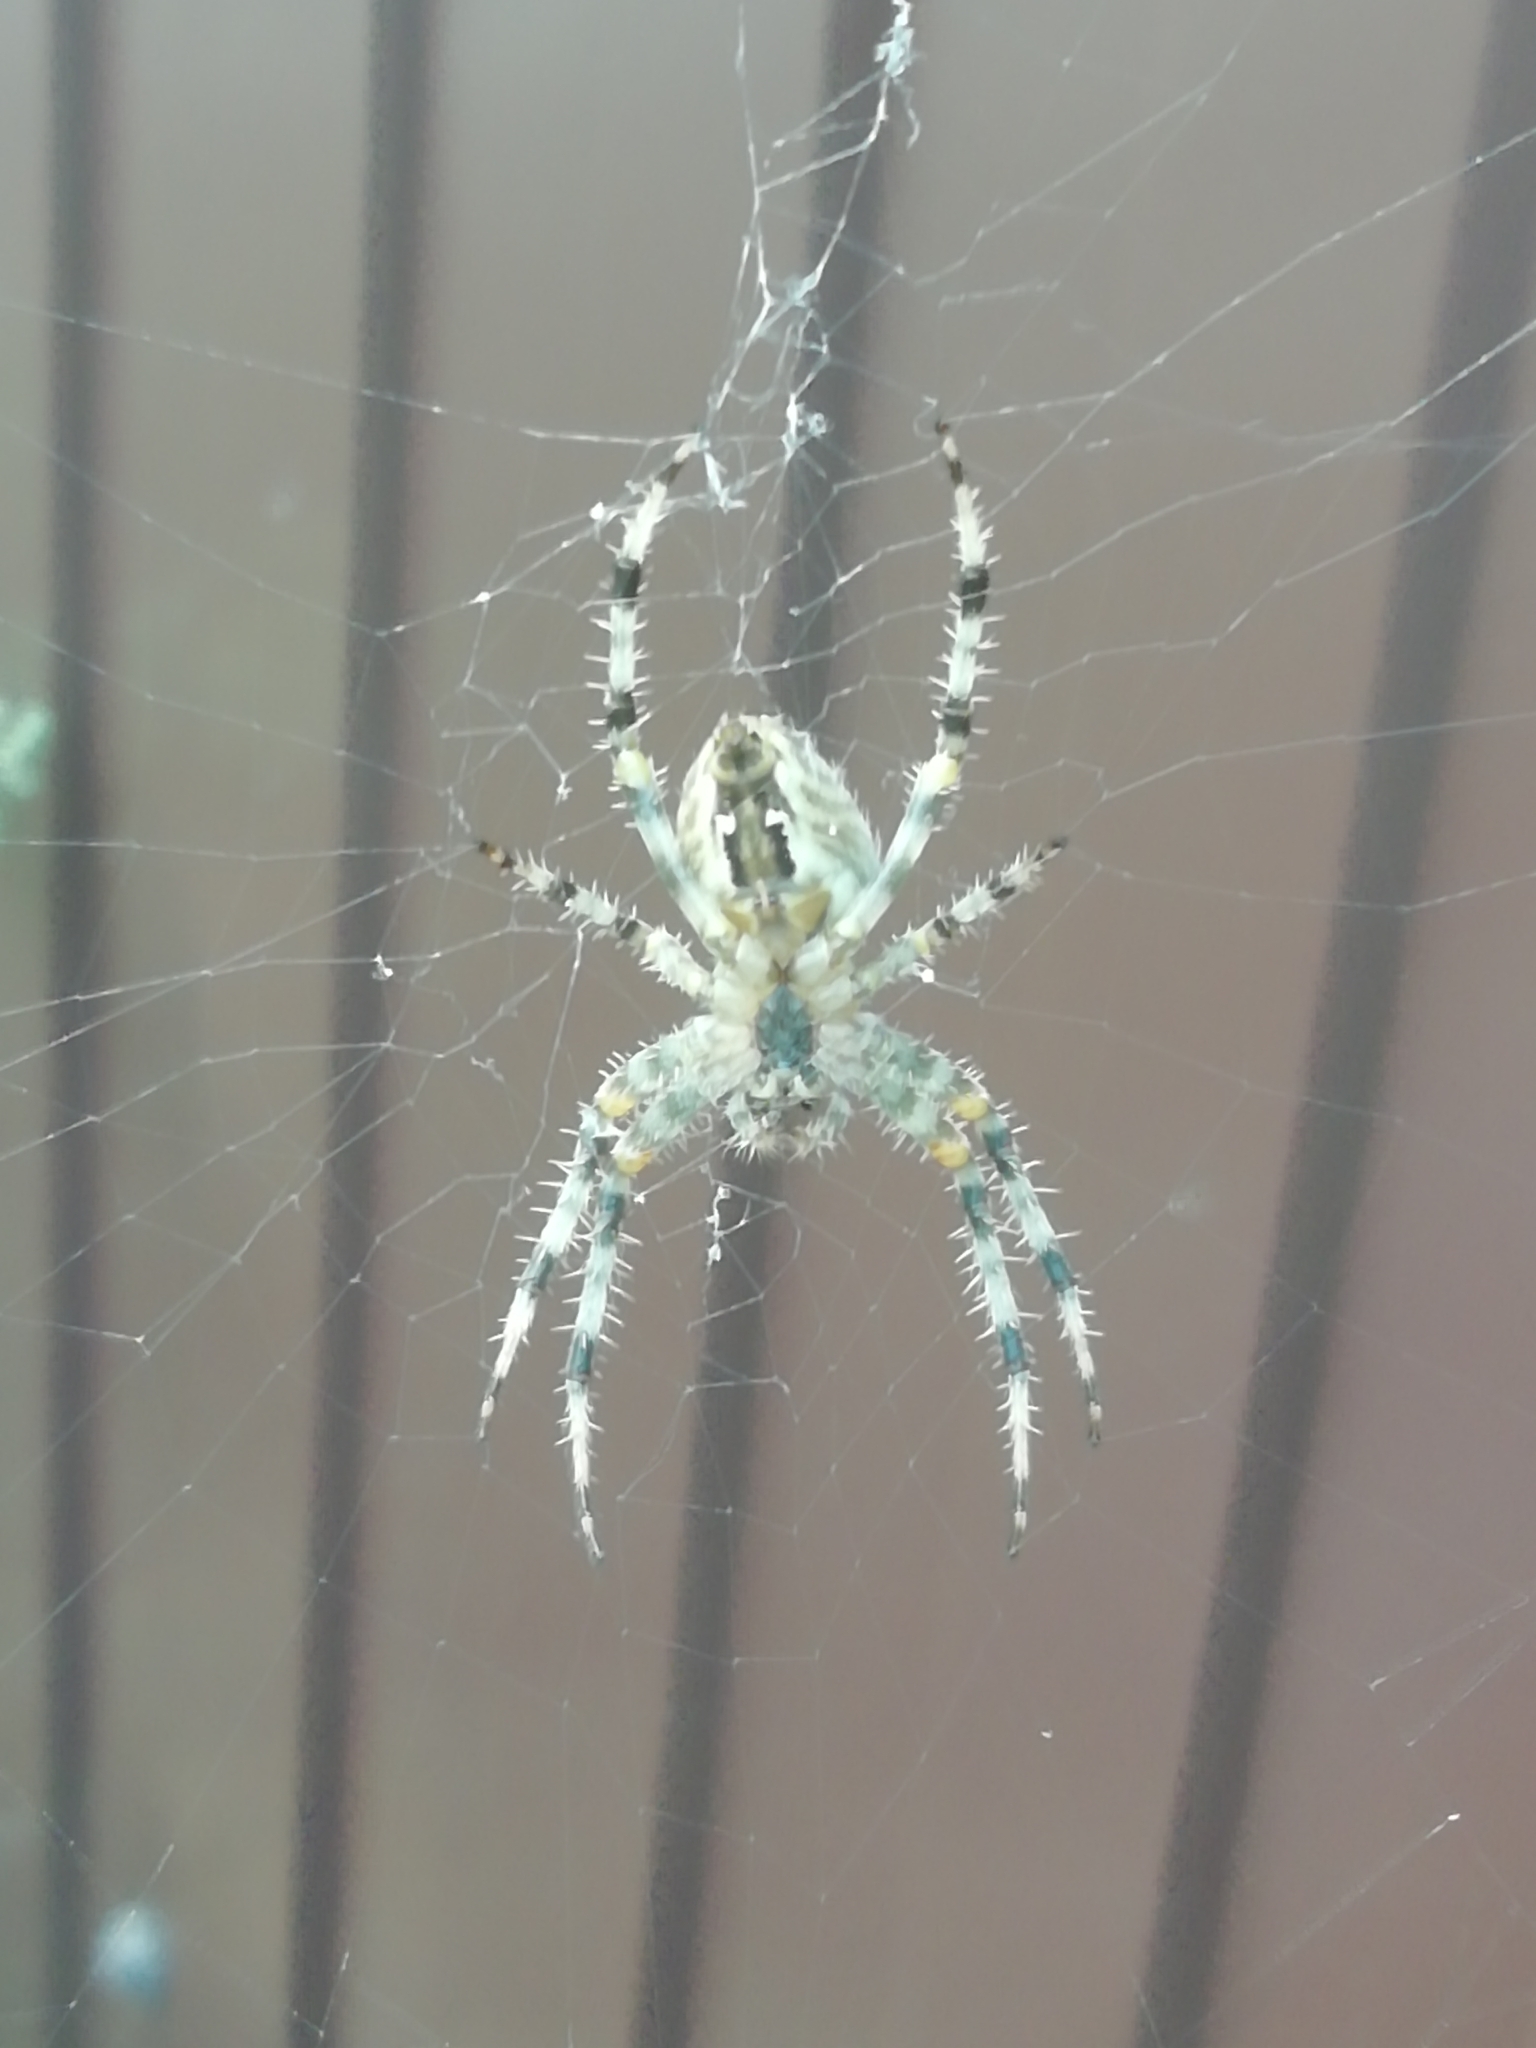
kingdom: Animalia
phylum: Arthropoda
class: Arachnida
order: Araneae
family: Araneidae
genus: Araneus
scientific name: Araneus diadematus
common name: Cross orbweaver
